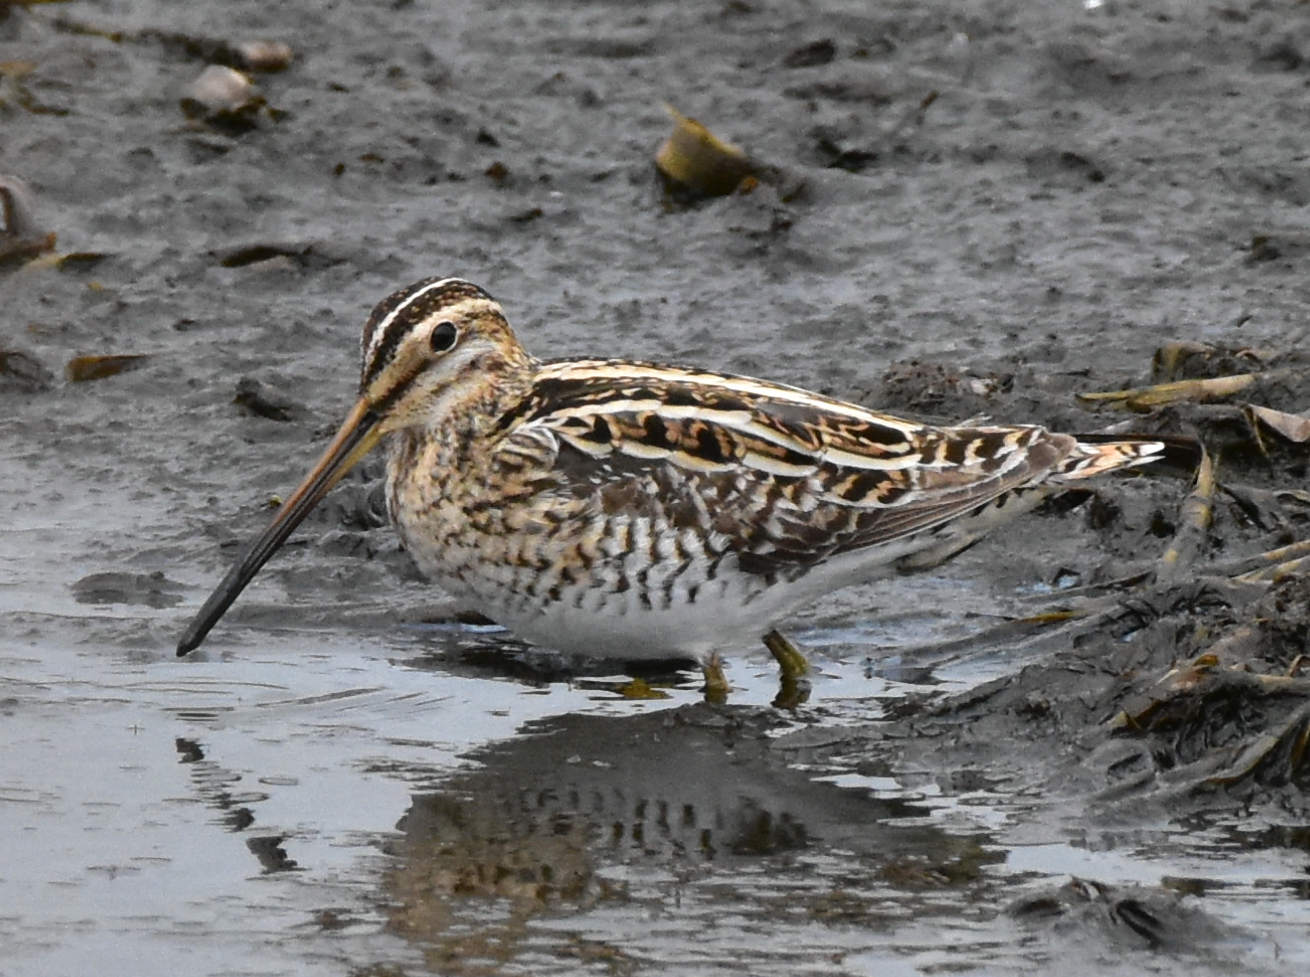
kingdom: Animalia
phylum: Chordata
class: Aves
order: Charadriiformes
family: Scolopacidae
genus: Gallinago
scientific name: Gallinago gallinago
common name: Common snipe
